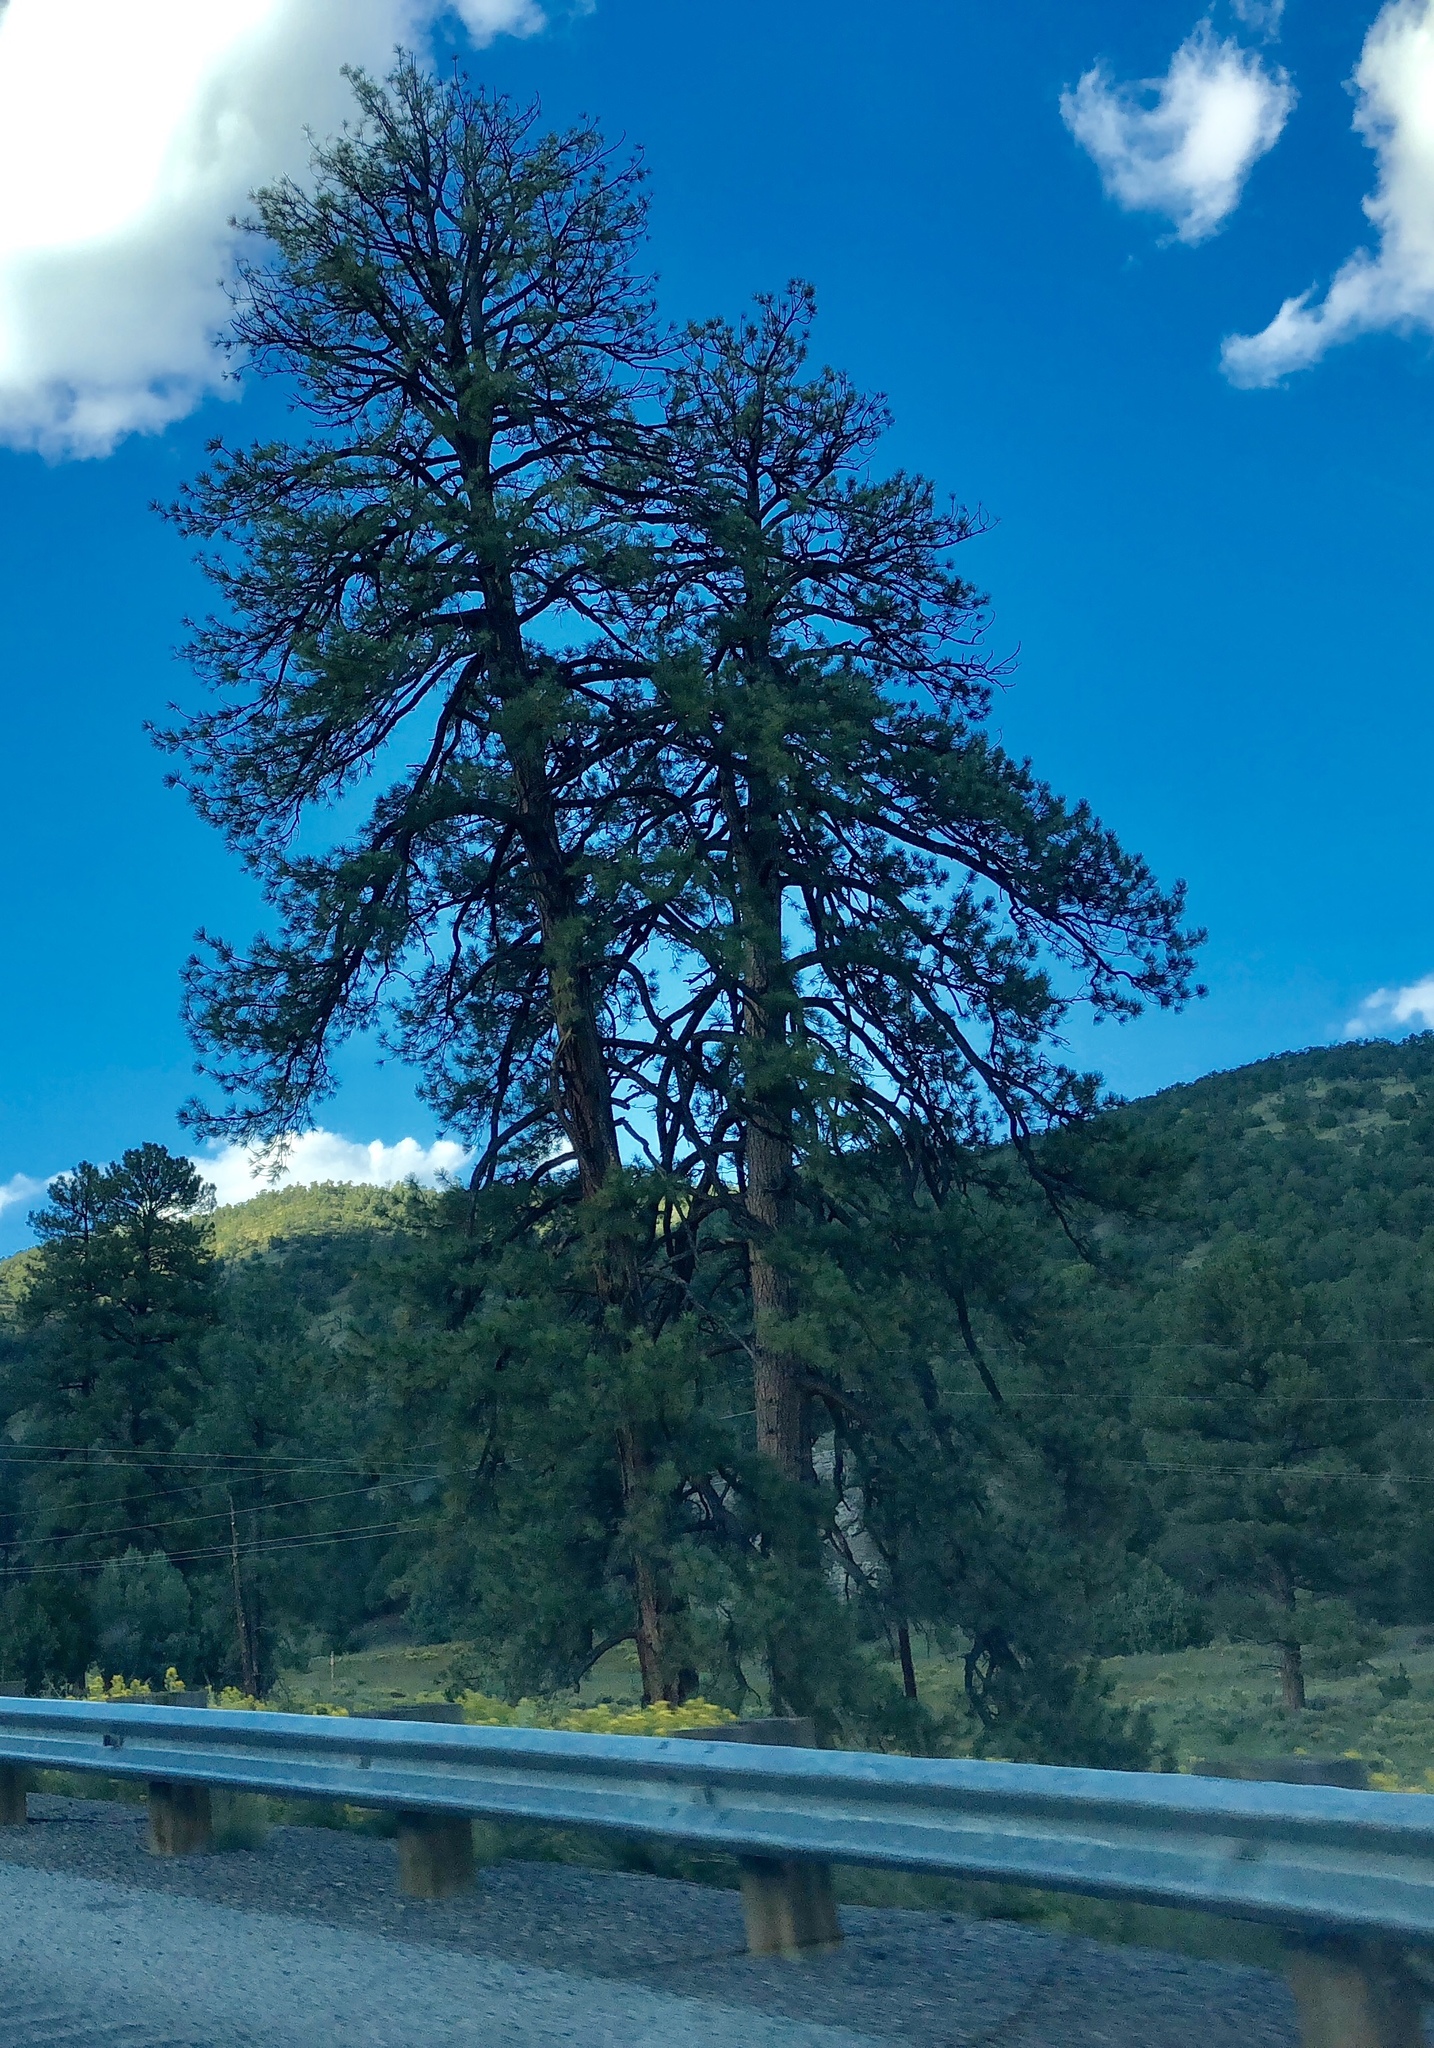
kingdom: Plantae
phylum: Tracheophyta
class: Pinopsida
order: Pinales
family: Pinaceae
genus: Pinus
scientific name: Pinus ponderosa
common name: Western yellow-pine
